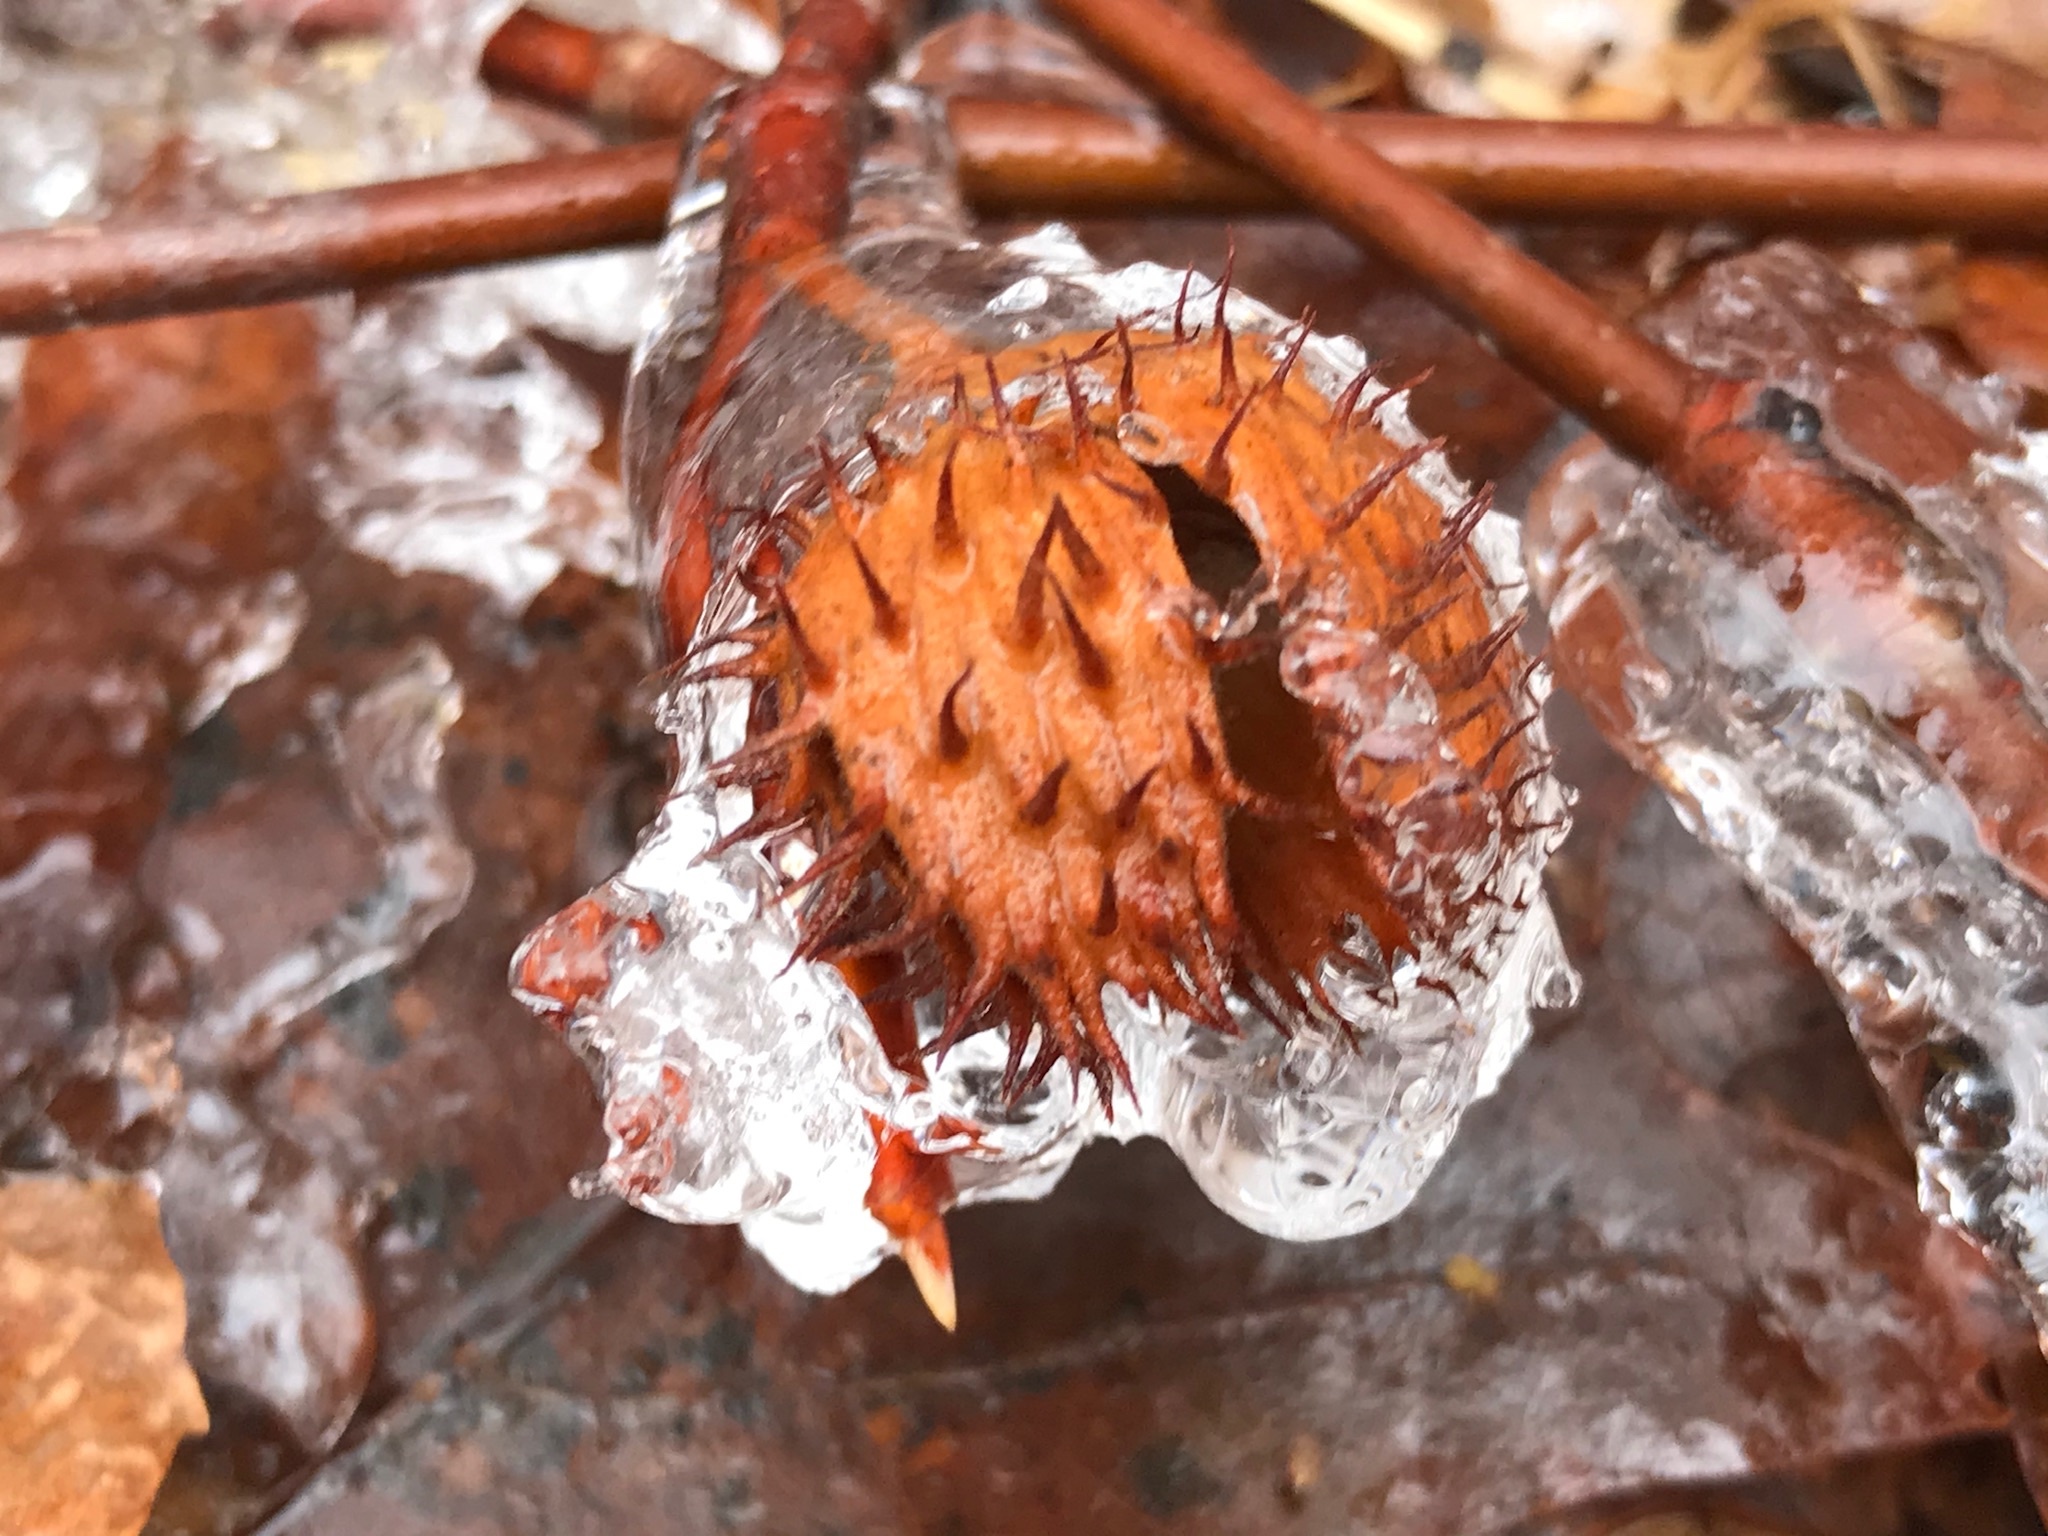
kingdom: Plantae
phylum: Tracheophyta
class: Magnoliopsida
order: Fagales
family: Fagaceae
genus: Fagus
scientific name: Fagus grandifolia
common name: American beech
